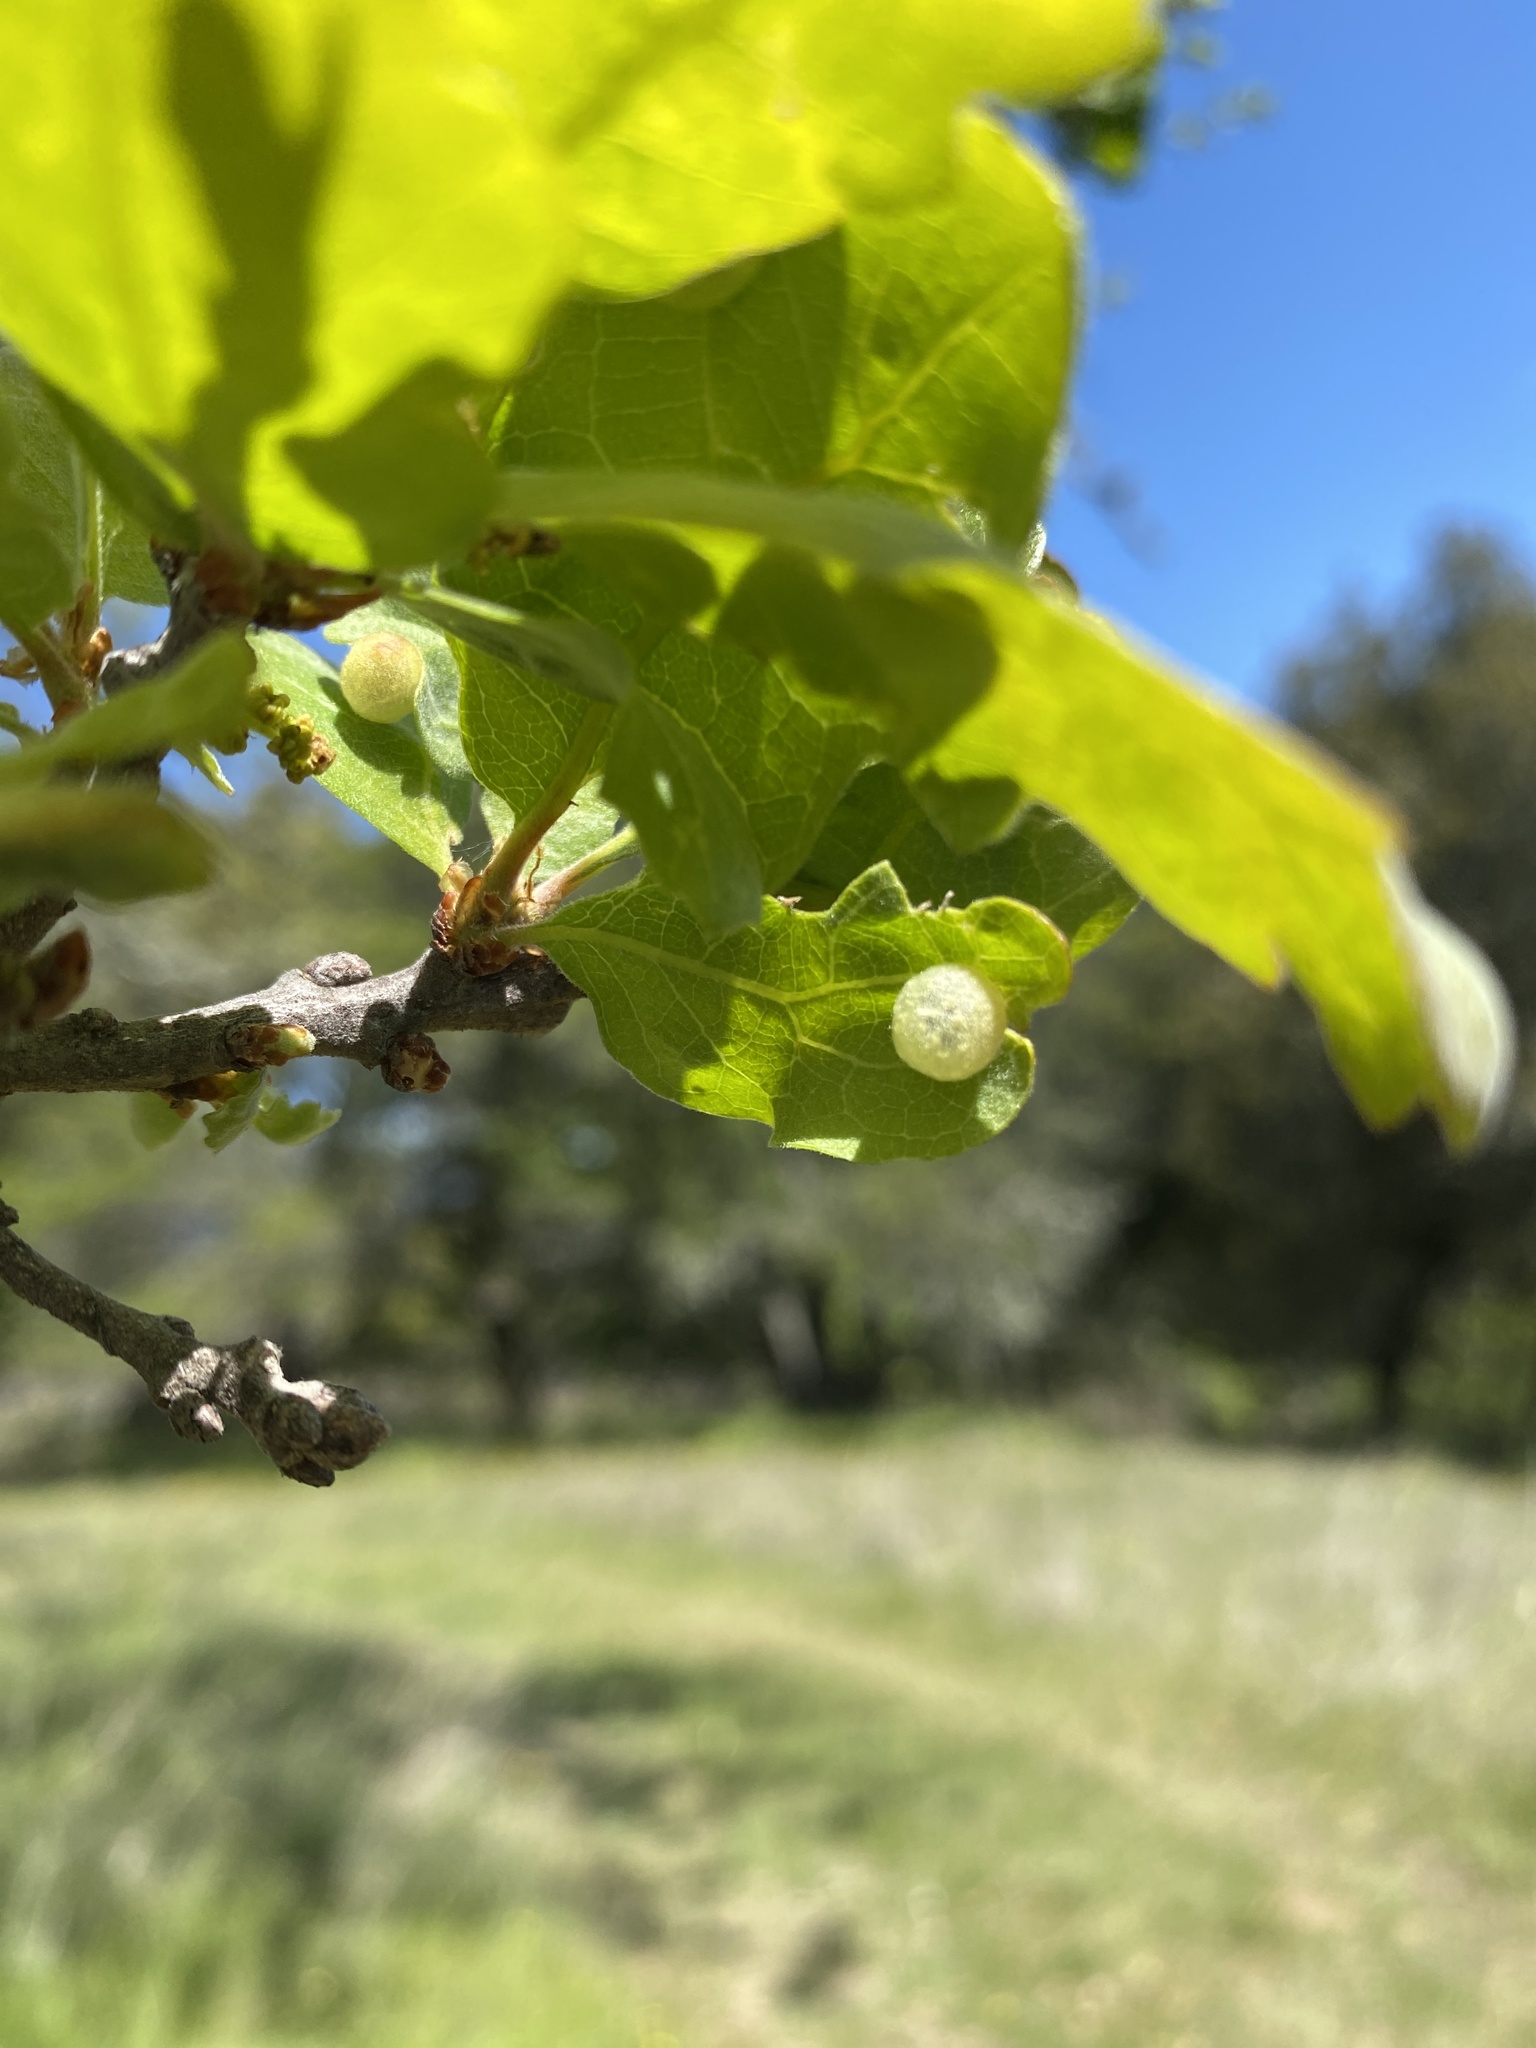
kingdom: Animalia
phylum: Arthropoda
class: Insecta
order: Hymenoptera
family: Cynipidae
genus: Andricus
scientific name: Andricus
